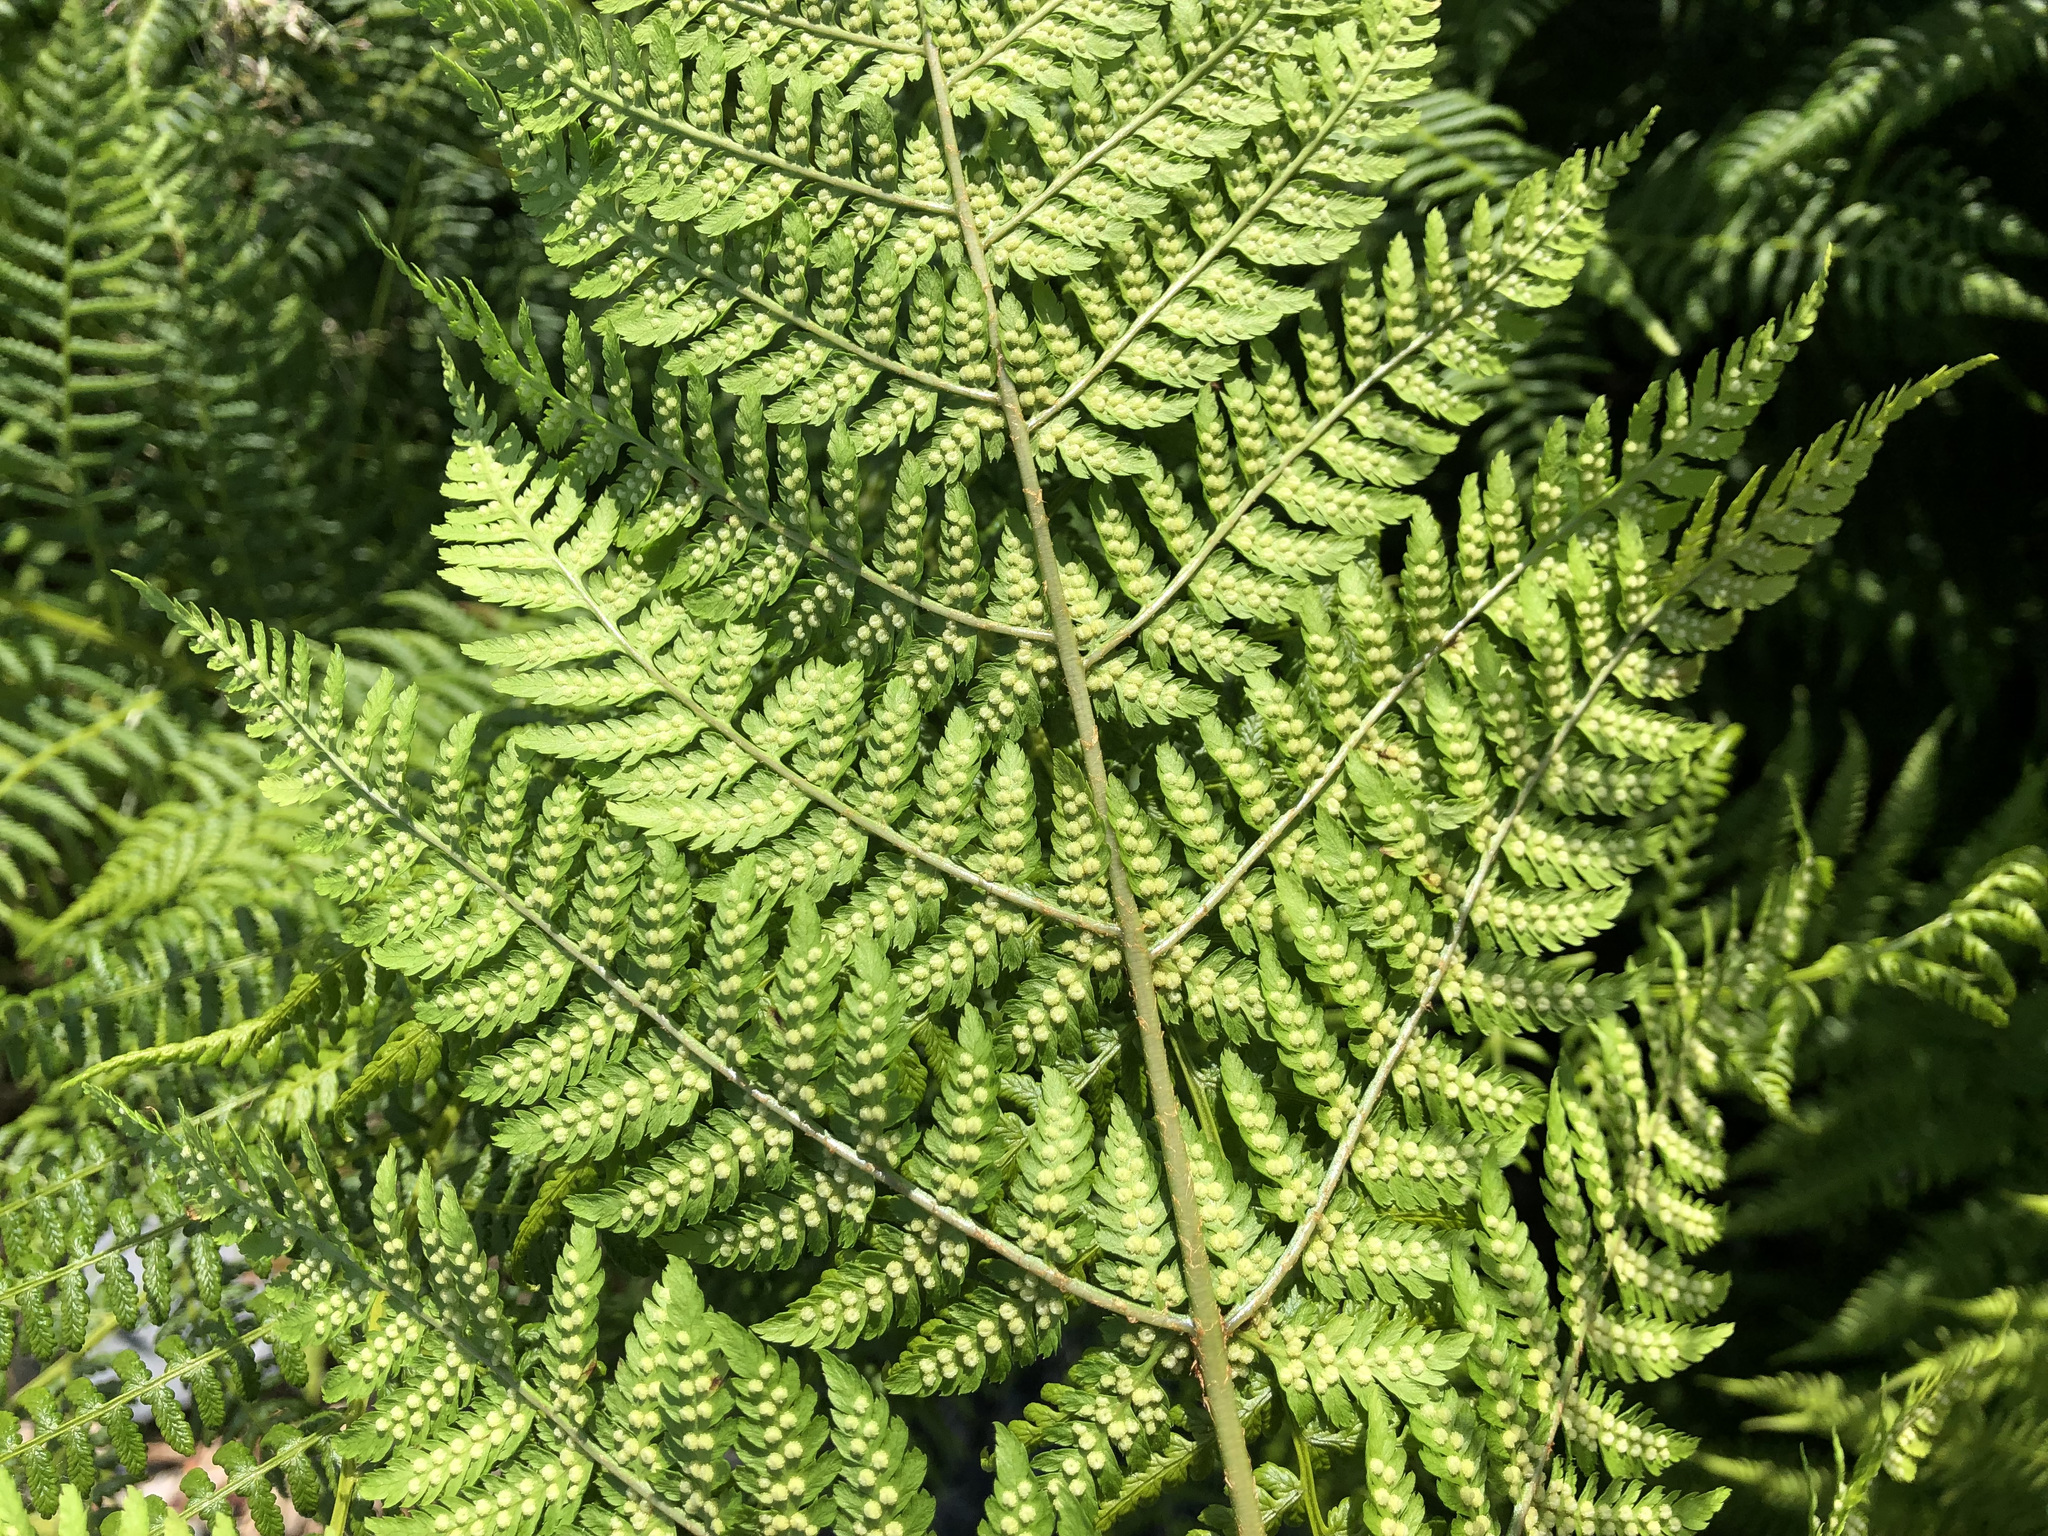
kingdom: Plantae
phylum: Tracheophyta
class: Polypodiopsida
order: Polypodiales
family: Dryopteridaceae
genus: Dryopteris
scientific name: Dryopteris expansa
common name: Northern buckler fern
